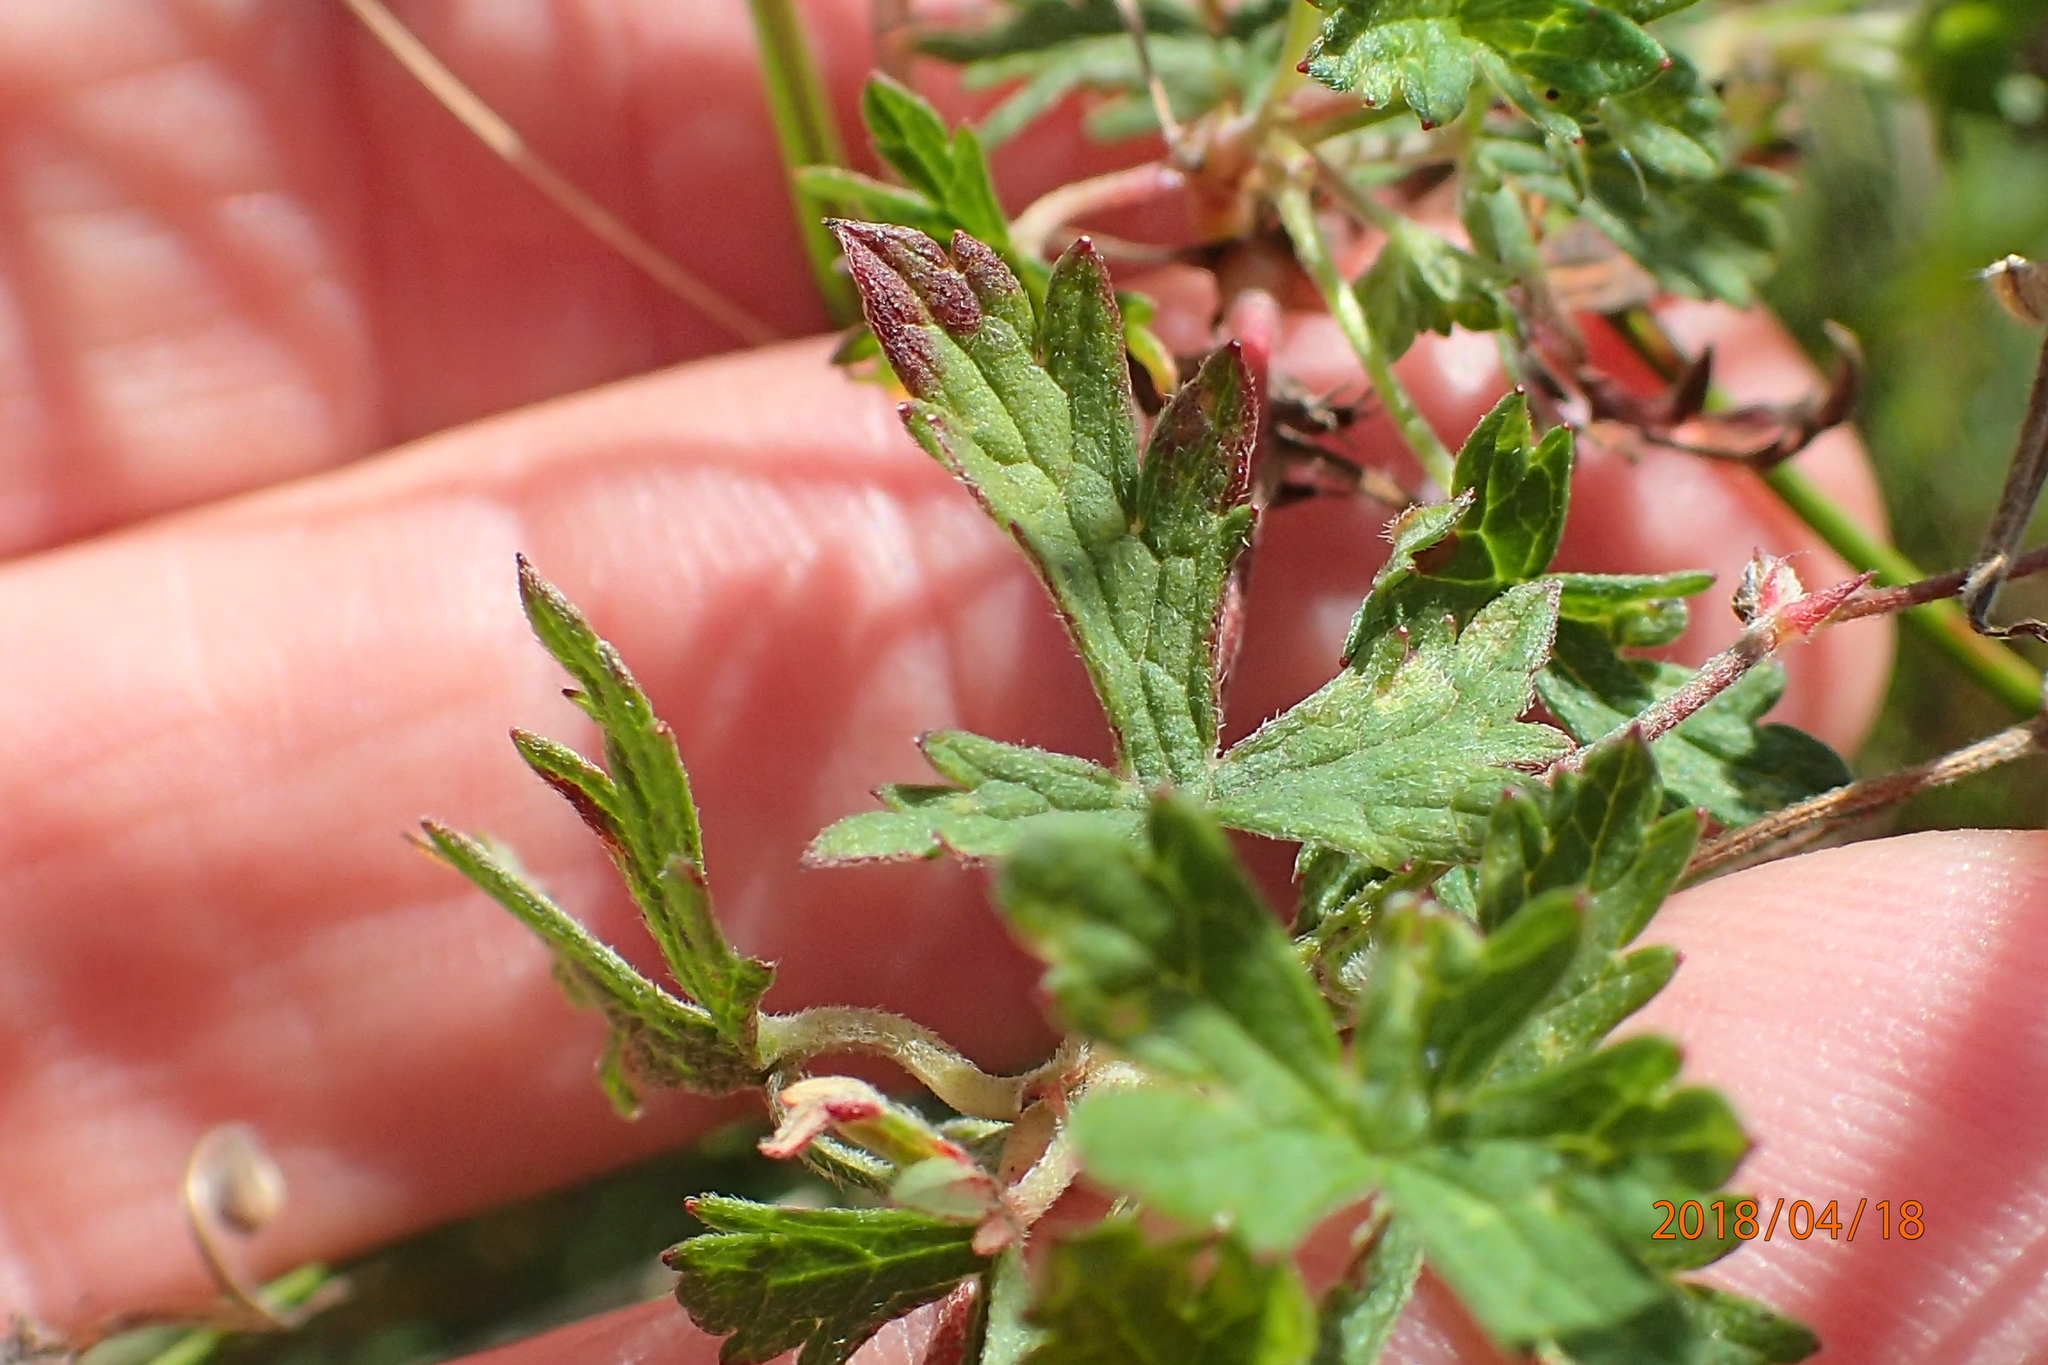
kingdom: Plantae
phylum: Tracheophyta
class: Magnoliopsida
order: Geraniales
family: Geraniaceae
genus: Geranium
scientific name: Geranium schlechteri
